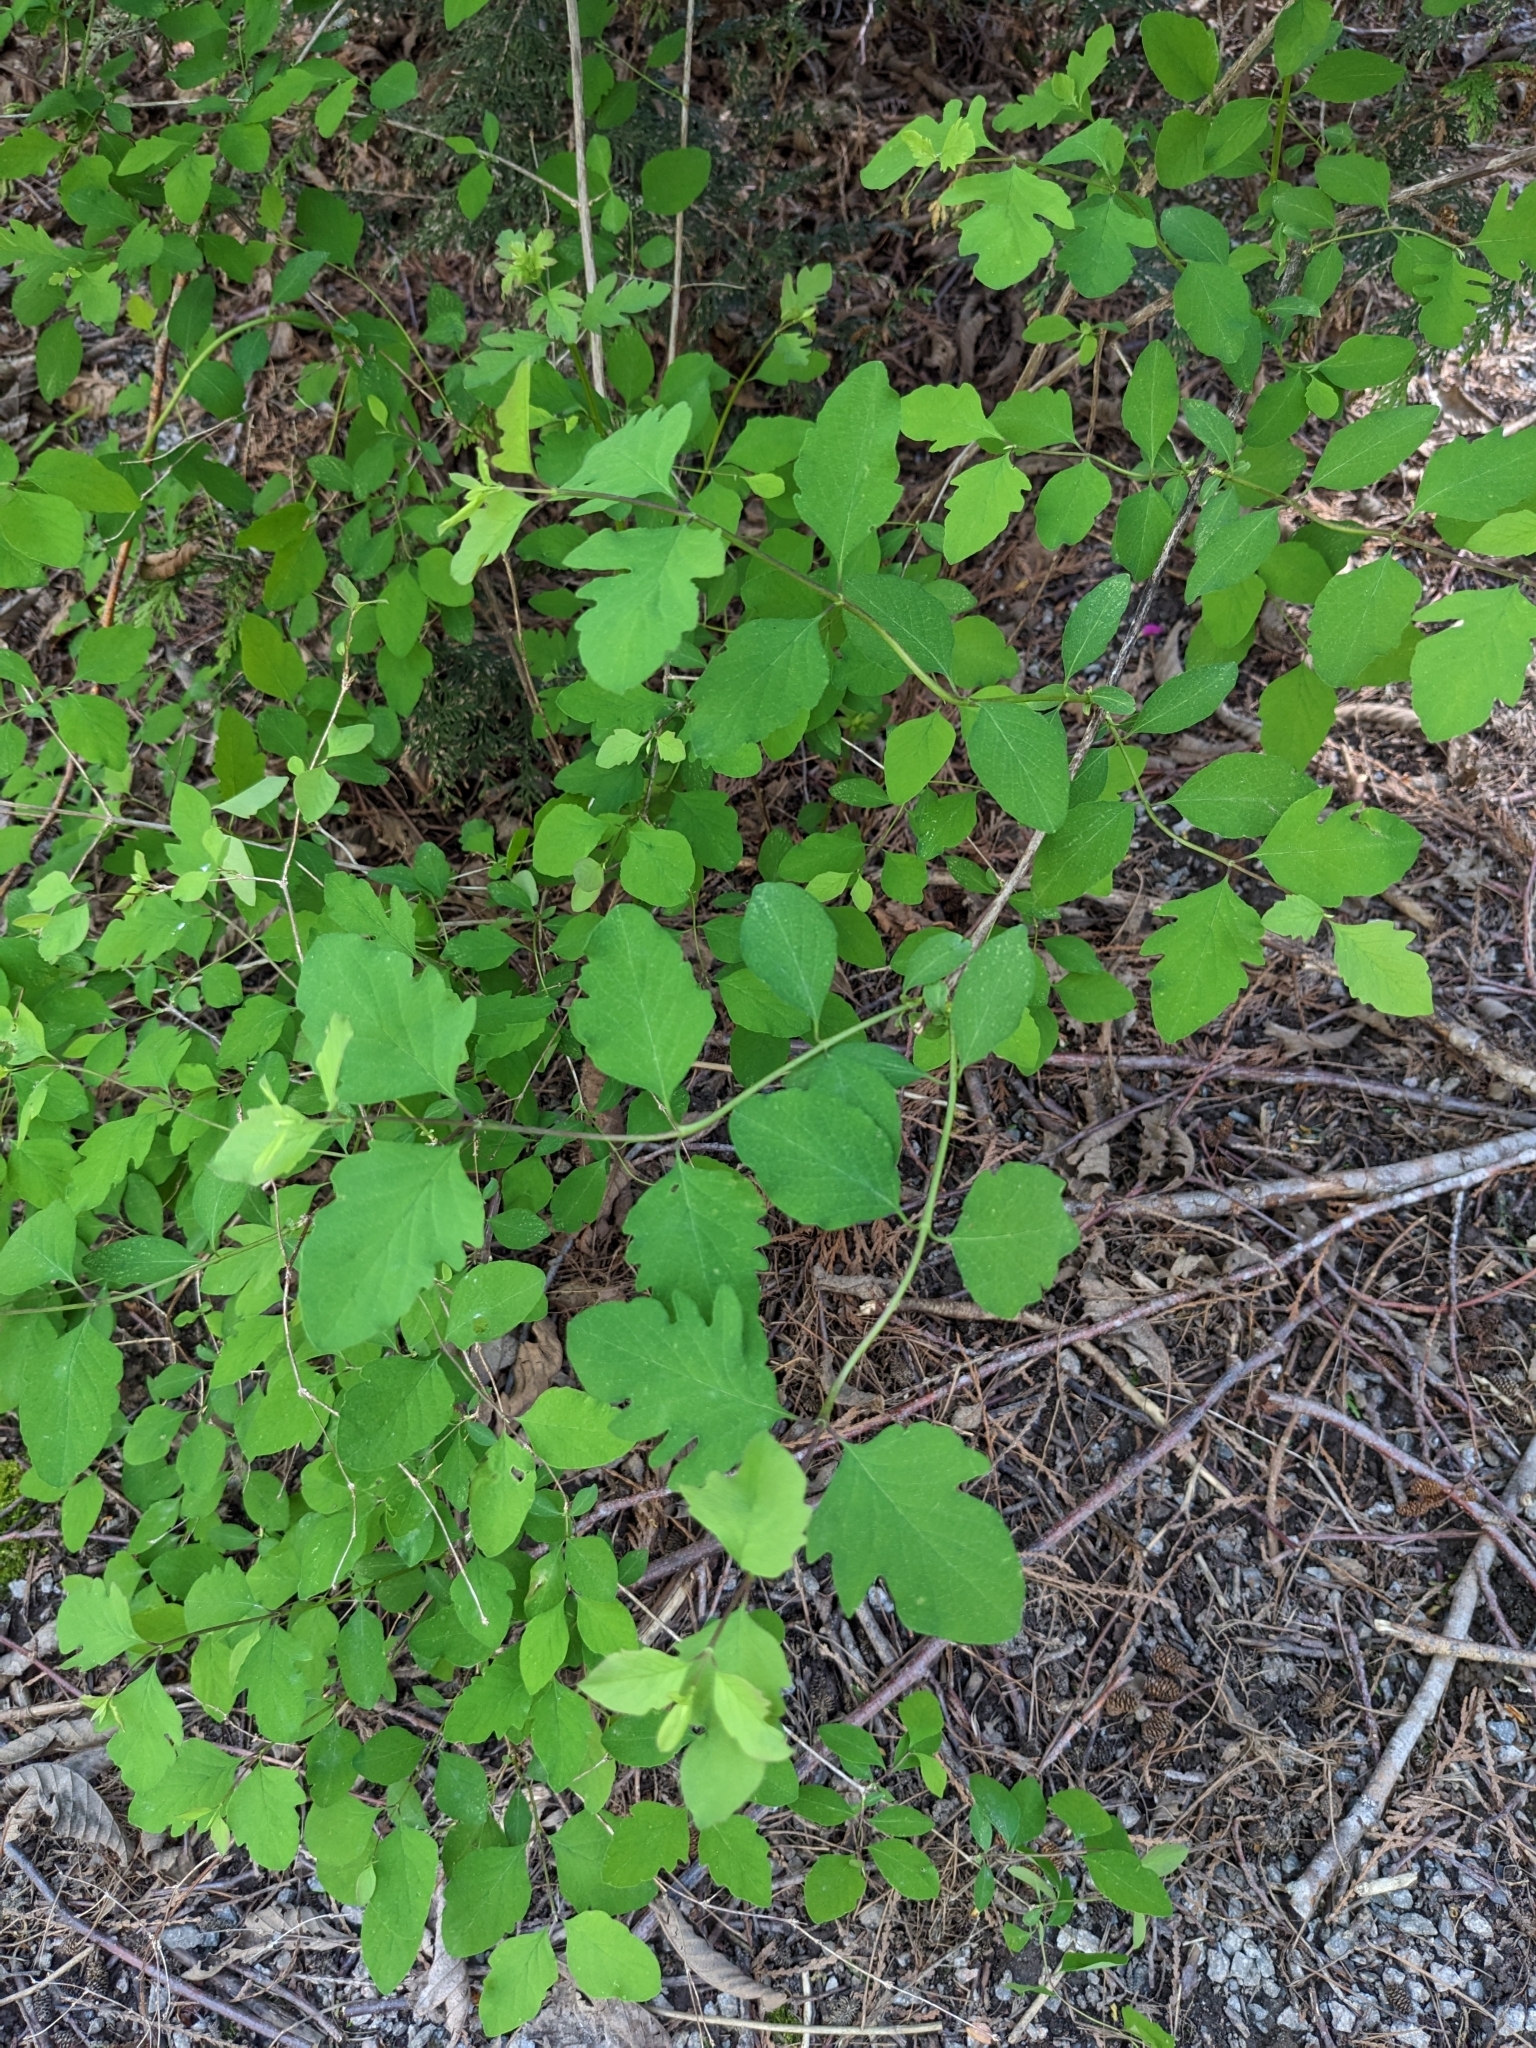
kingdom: Plantae
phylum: Tracheophyta
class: Magnoliopsida
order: Dipsacales
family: Caprifoliaceae
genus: Symphoricarpos
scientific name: Symphoricarpos albus
